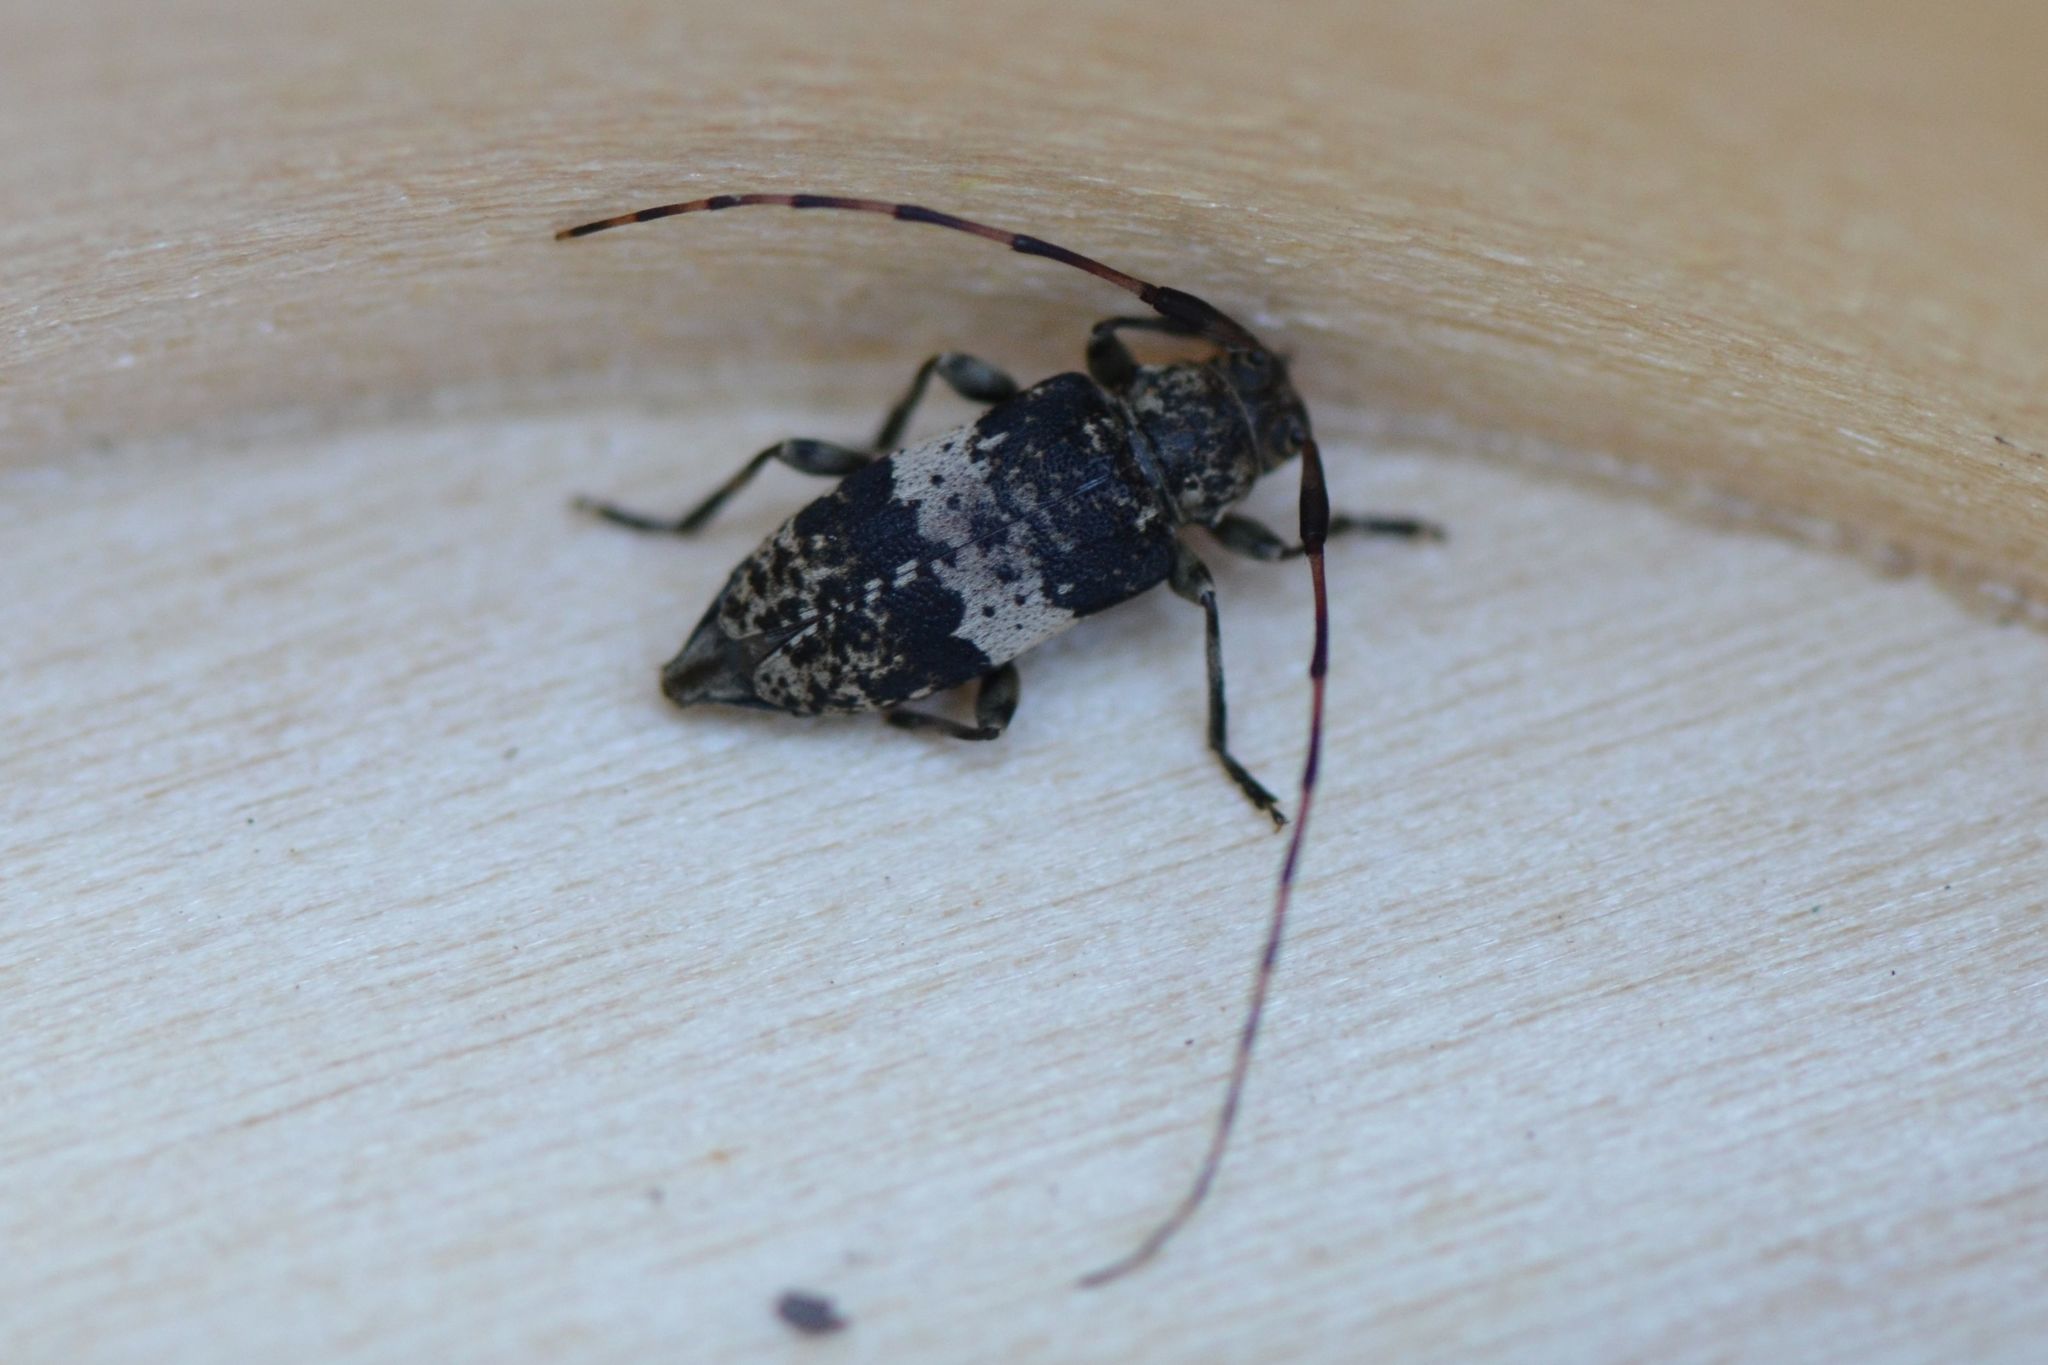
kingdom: Animalia
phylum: Arthropoda
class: Insecta
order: Coleoptera
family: Cerambycidae
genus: Leiopus
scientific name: Leiopus
